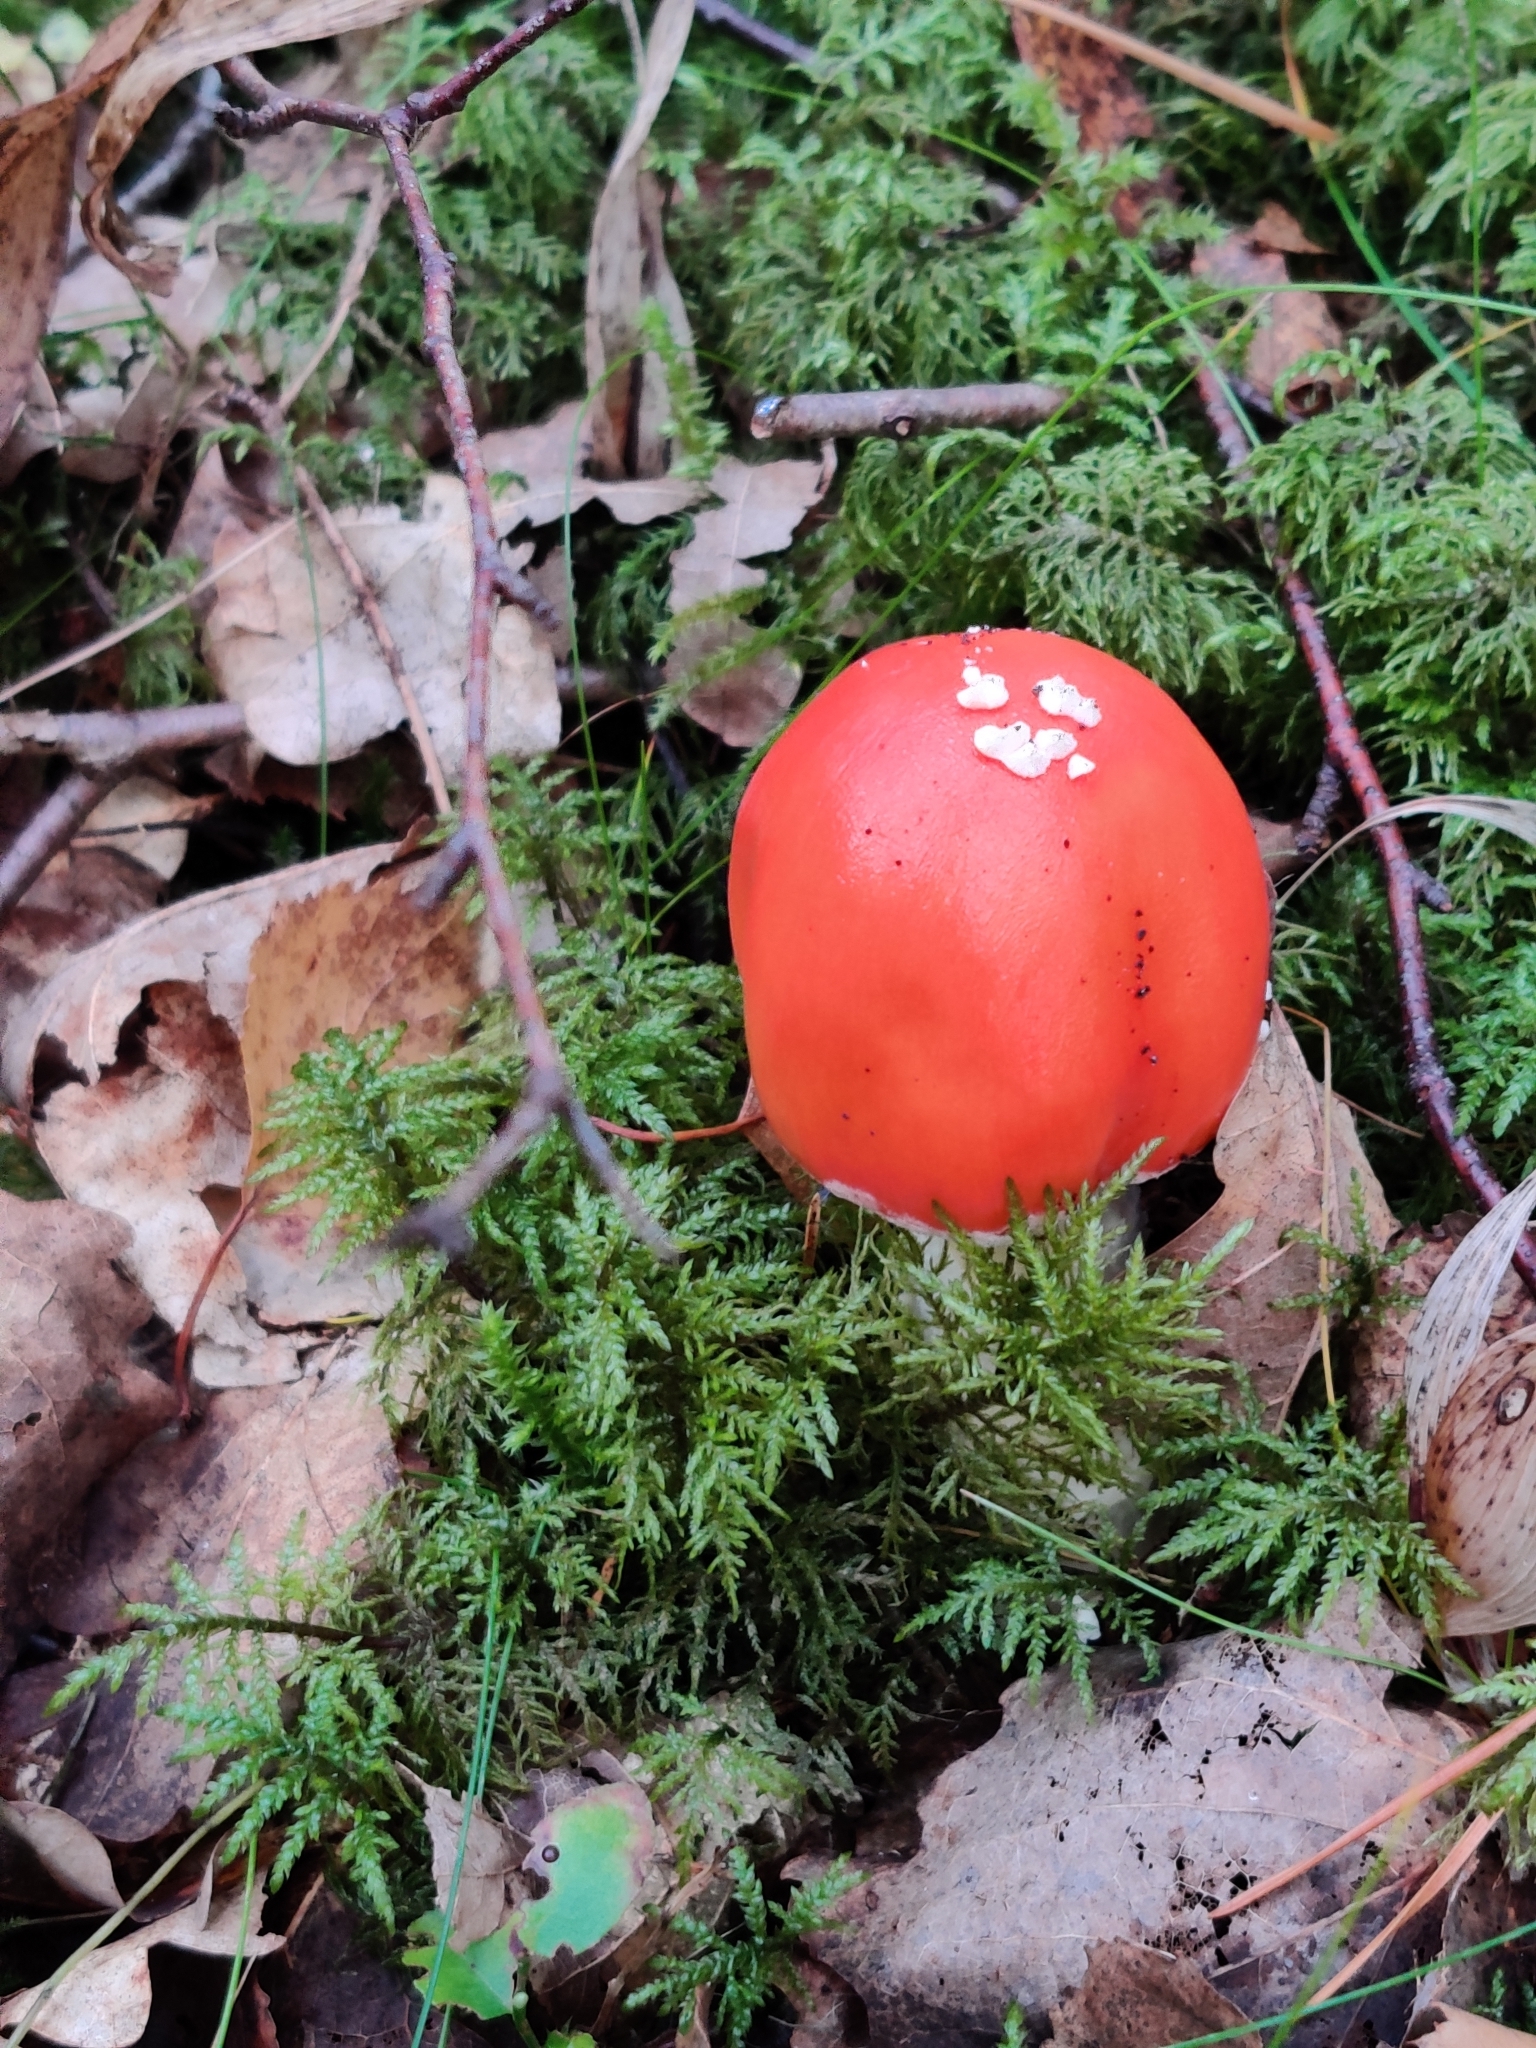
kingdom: Fungi
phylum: Basidiomycota
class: Agaricomycetes
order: Agaricales
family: Amanitaceae
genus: Amanita
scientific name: Amanita muscaria
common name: Fly agaric
